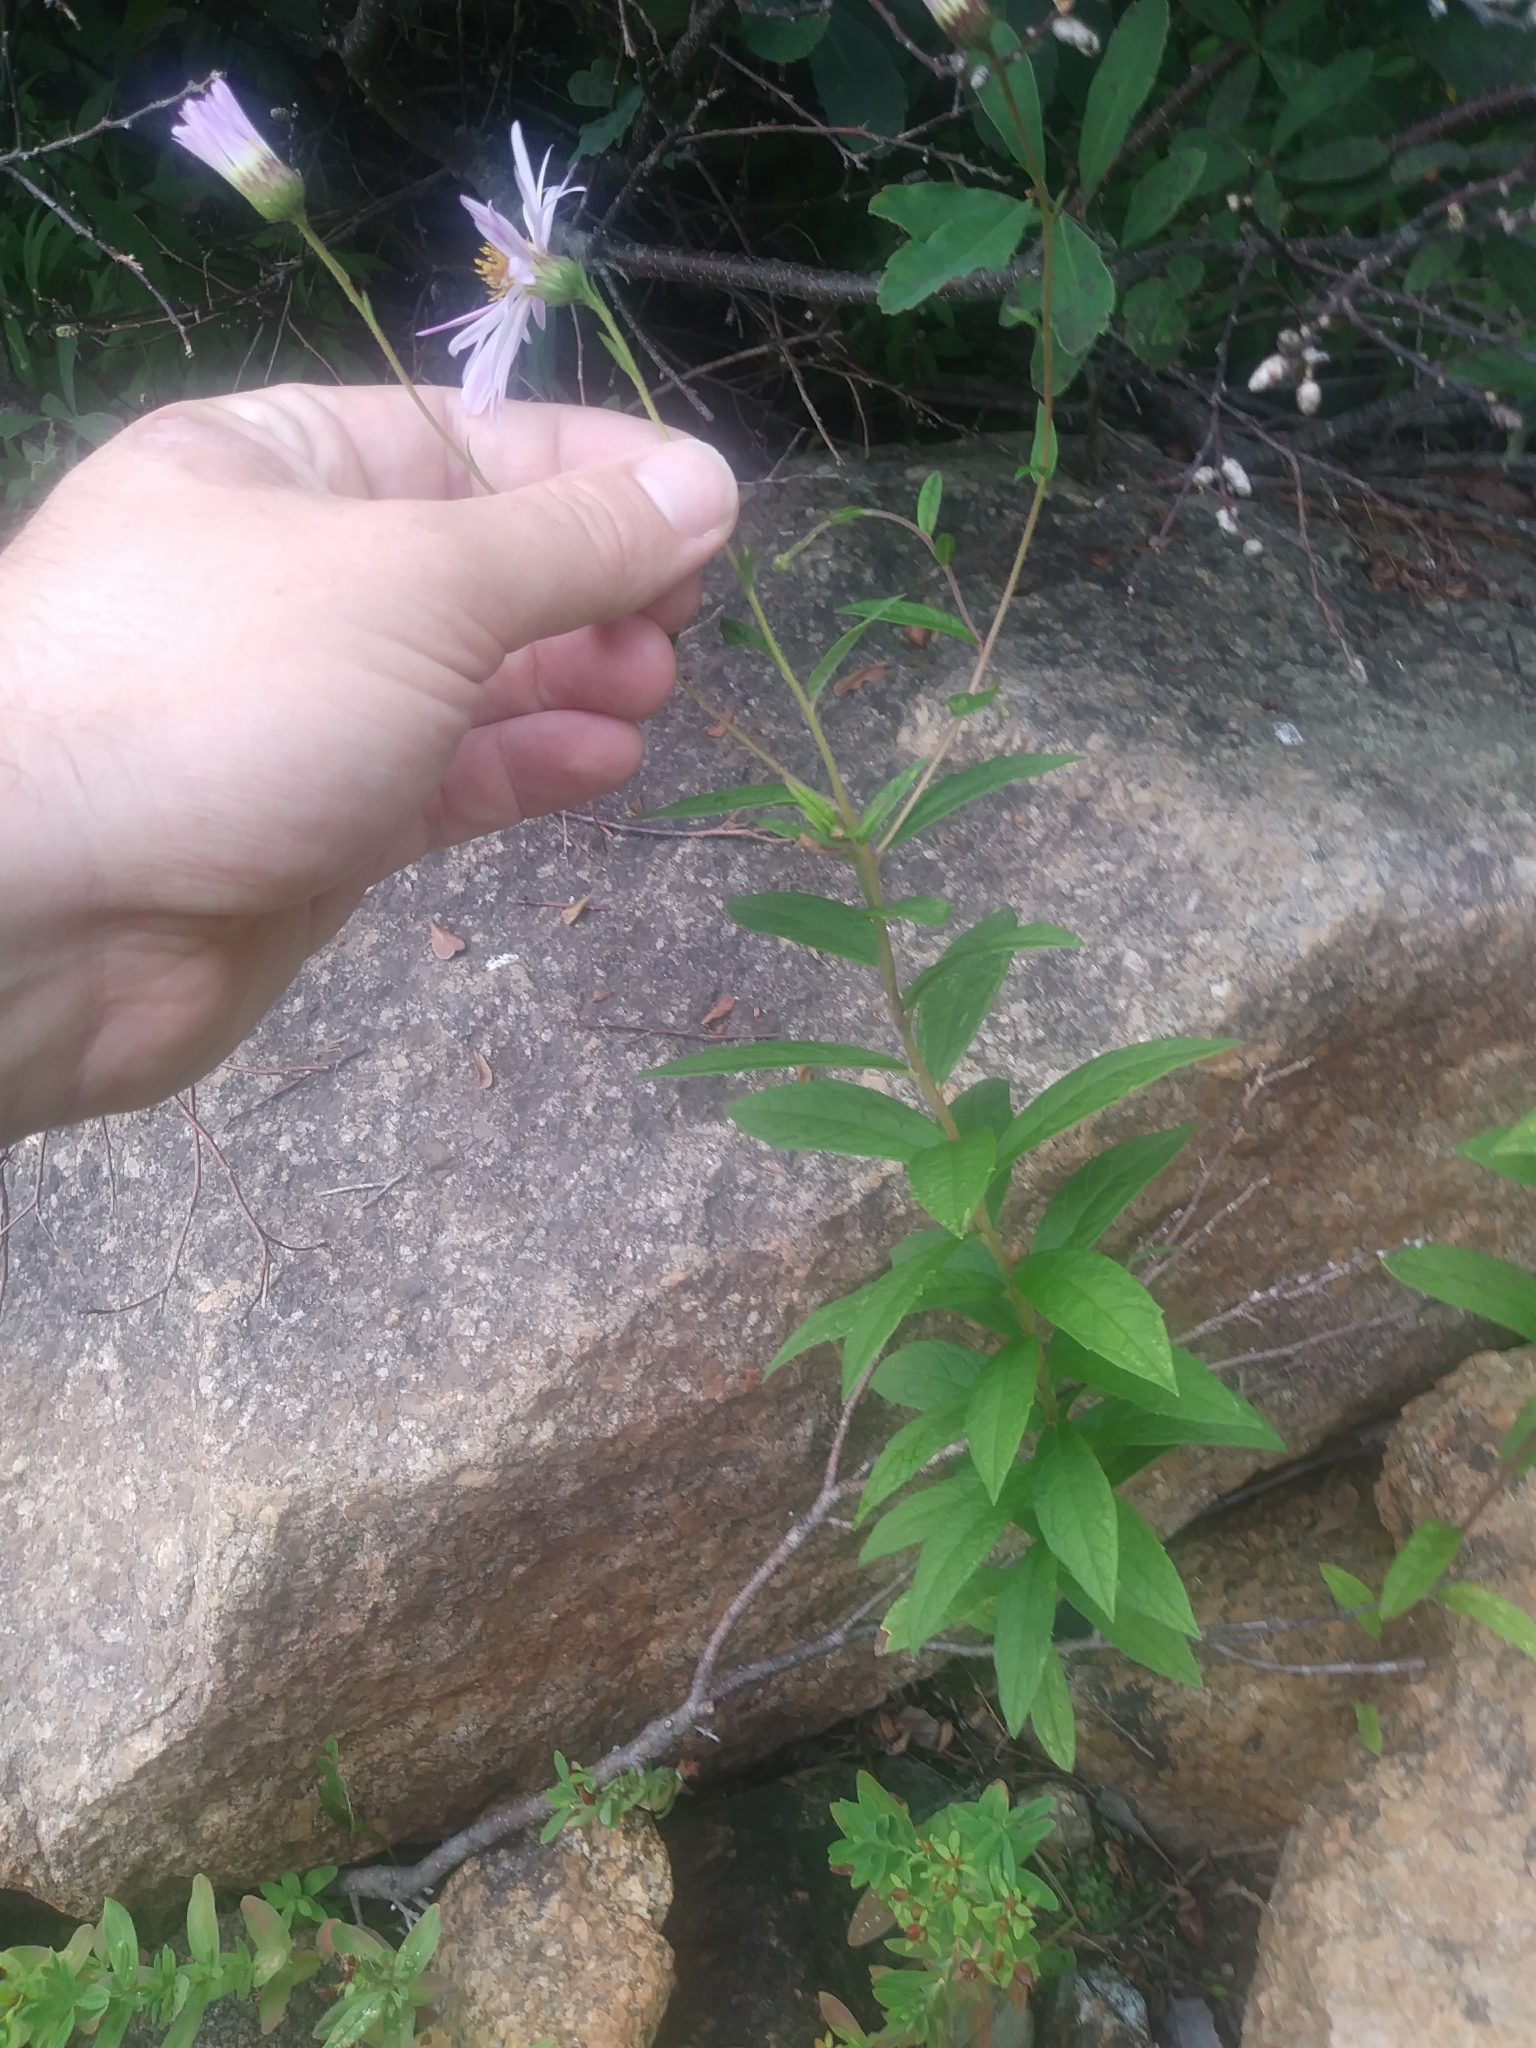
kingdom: Plantae
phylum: Tracheophyta
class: Magnoliopsida
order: Asterales
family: Asteraceae
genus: Oclemena
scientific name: Oclemena nemoralis
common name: Bog aster
